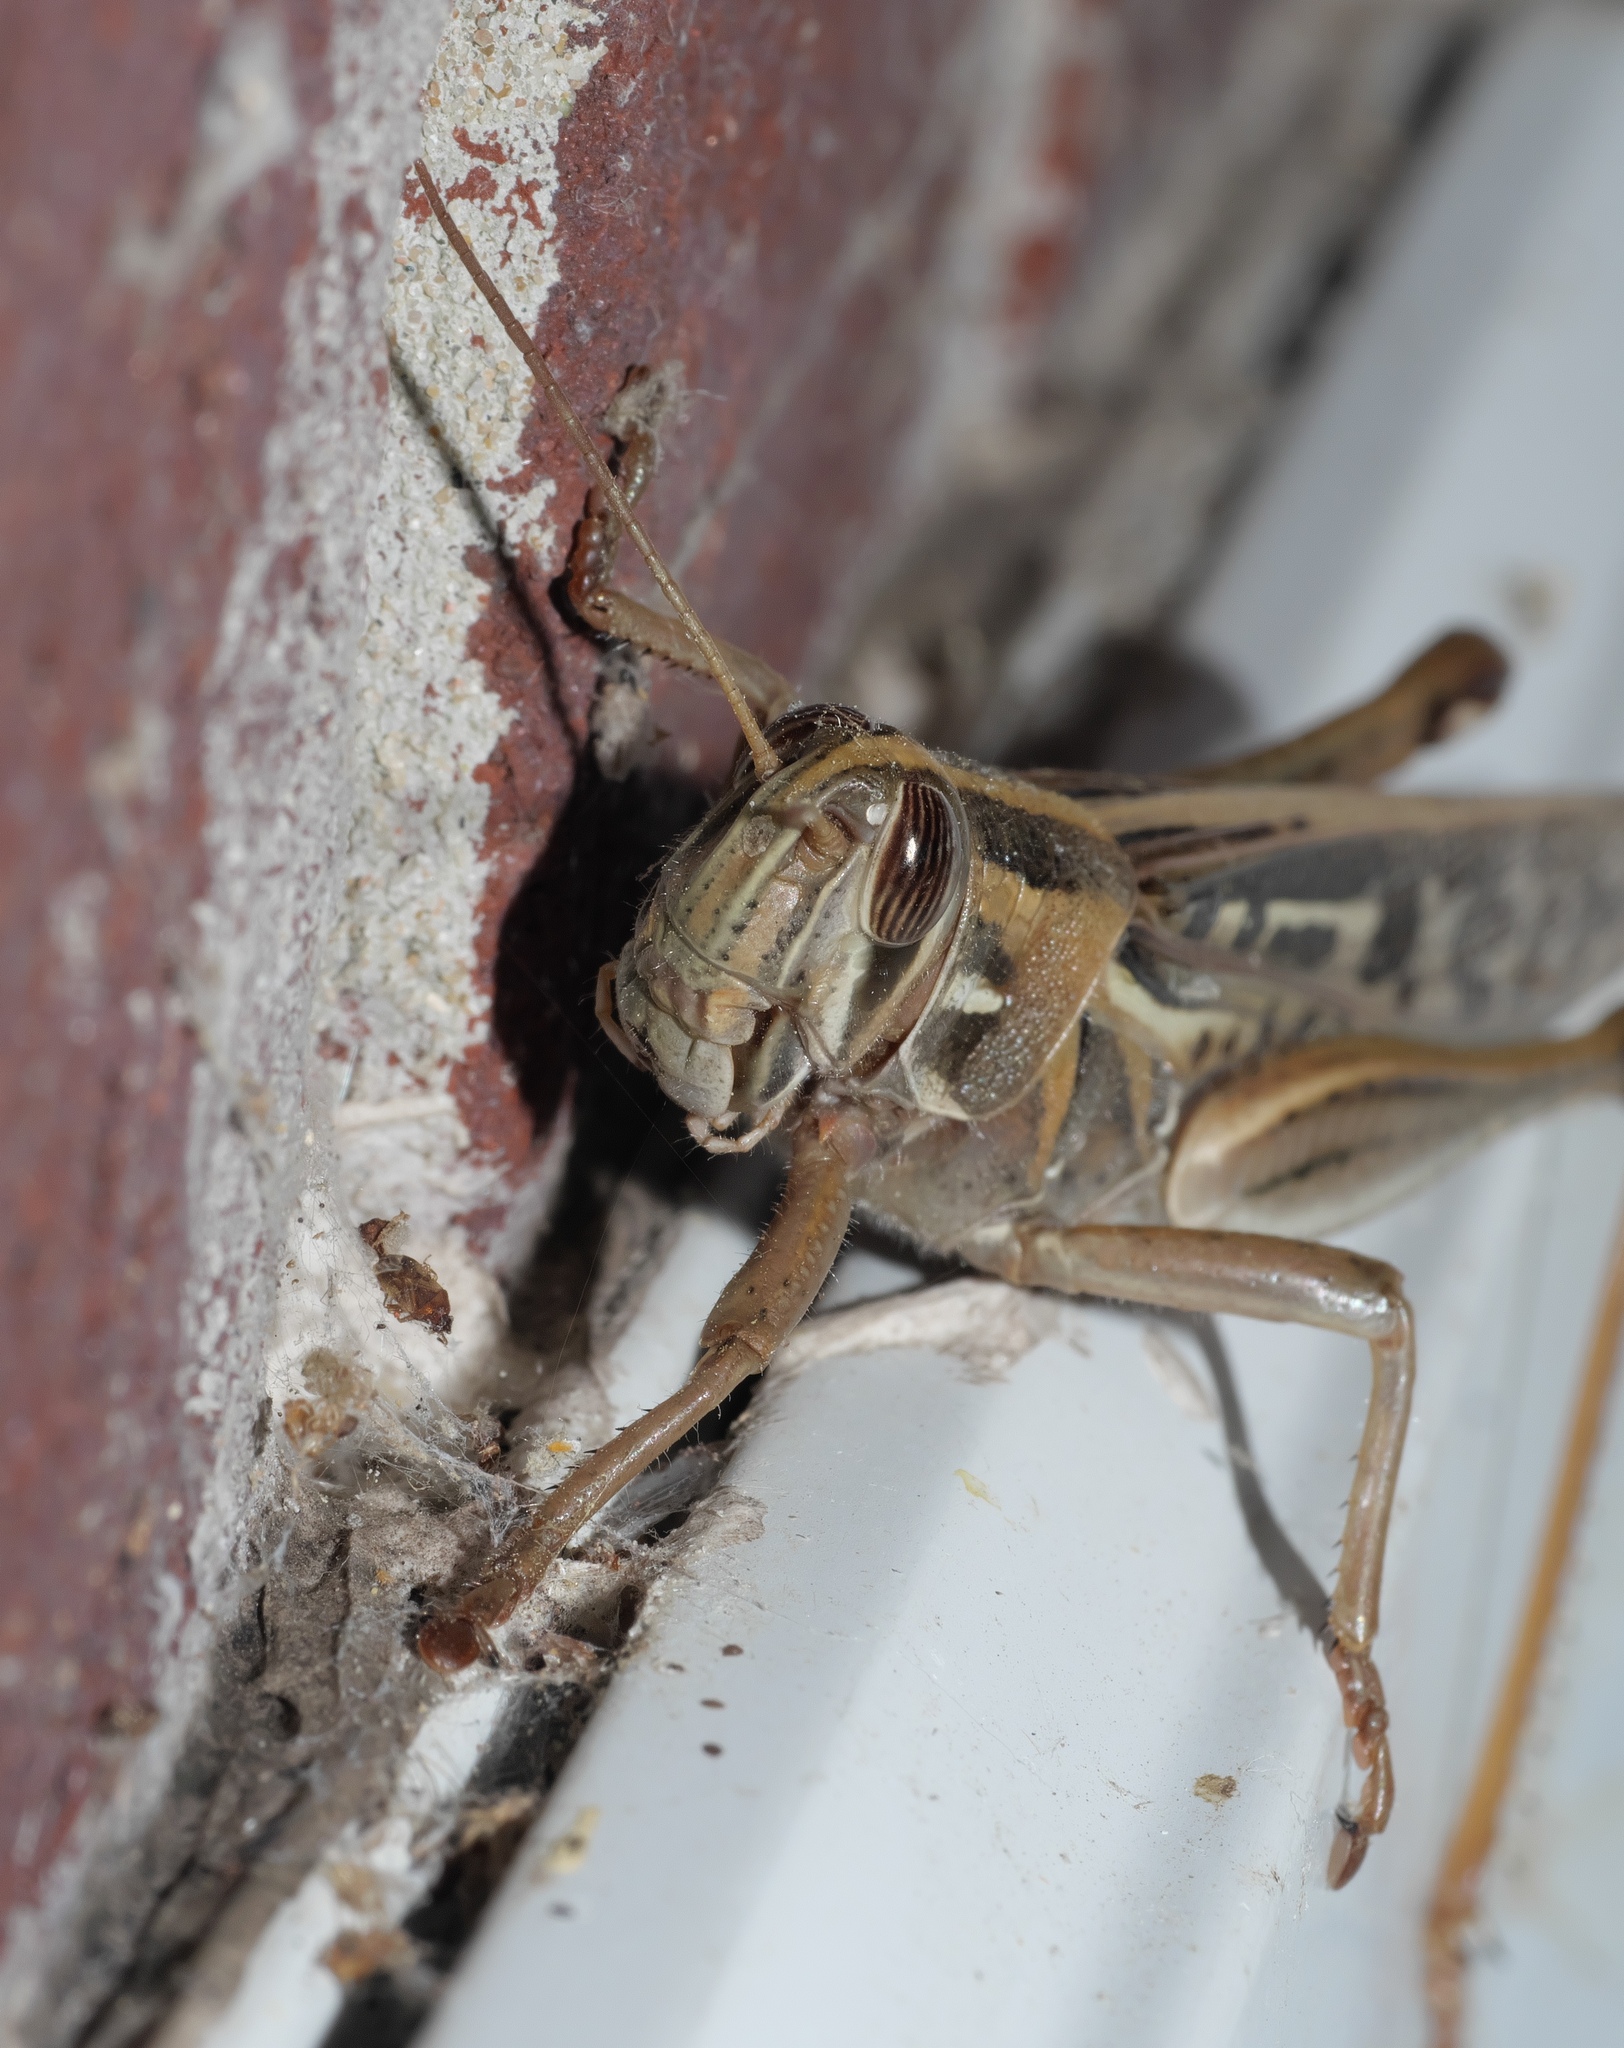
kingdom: Animalia
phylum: Arthropoda
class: Insecta
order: Orthoptera
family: Acrididae
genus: Schistocerca
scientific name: Schistocerca americana
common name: American bird locust
